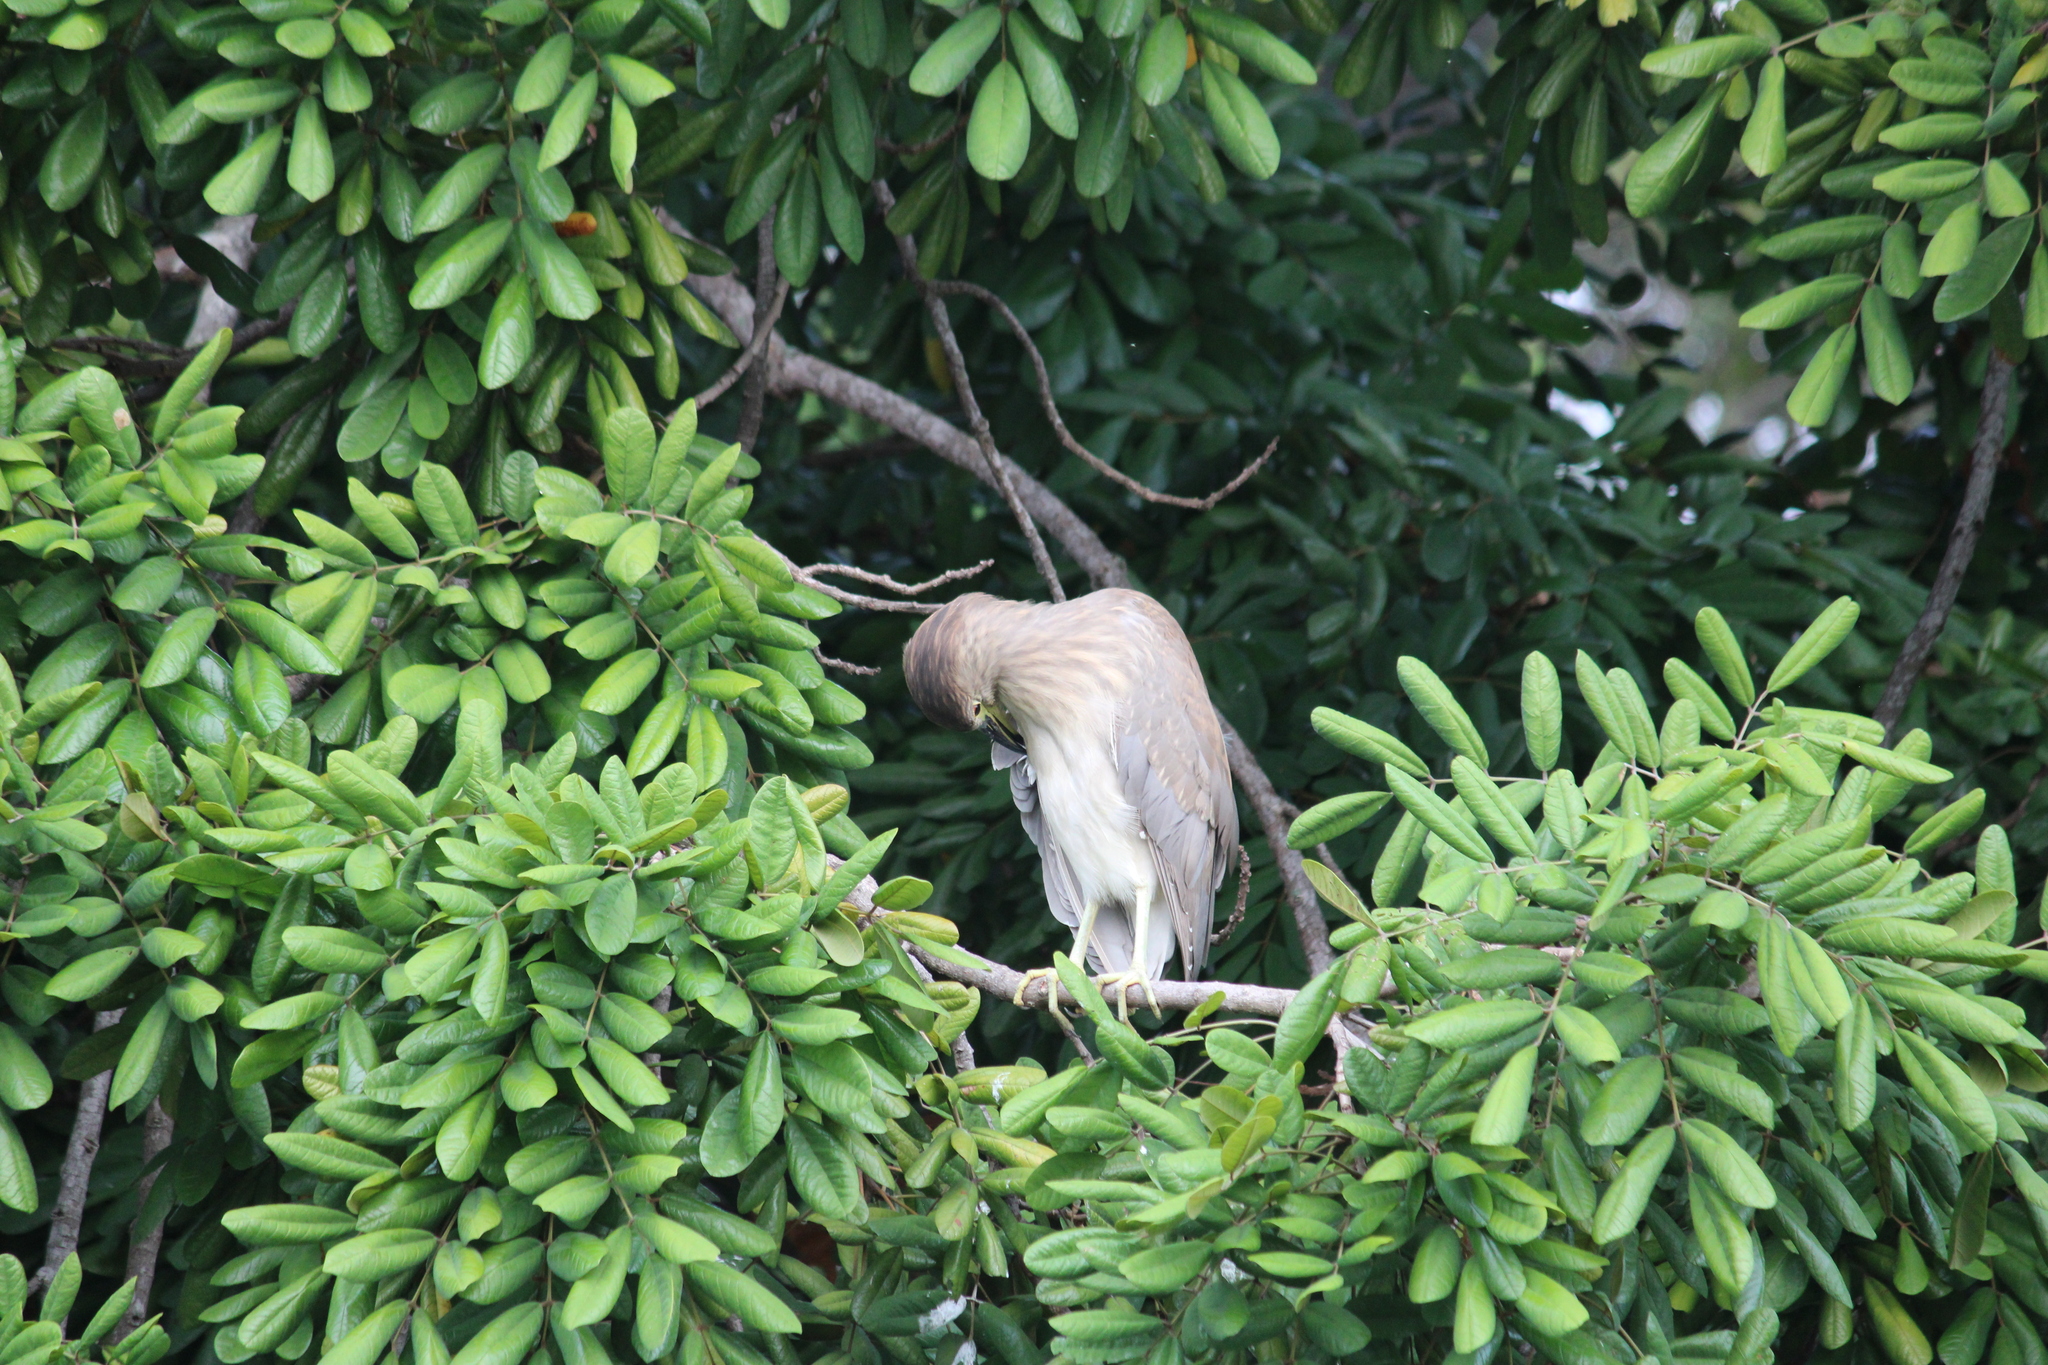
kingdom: Animalia
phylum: Chordata
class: Aves
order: Pelecaniformes
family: Ardeidae
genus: Nycticorax
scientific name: Nycticorax nycticorax
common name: Black-crowned night heron
